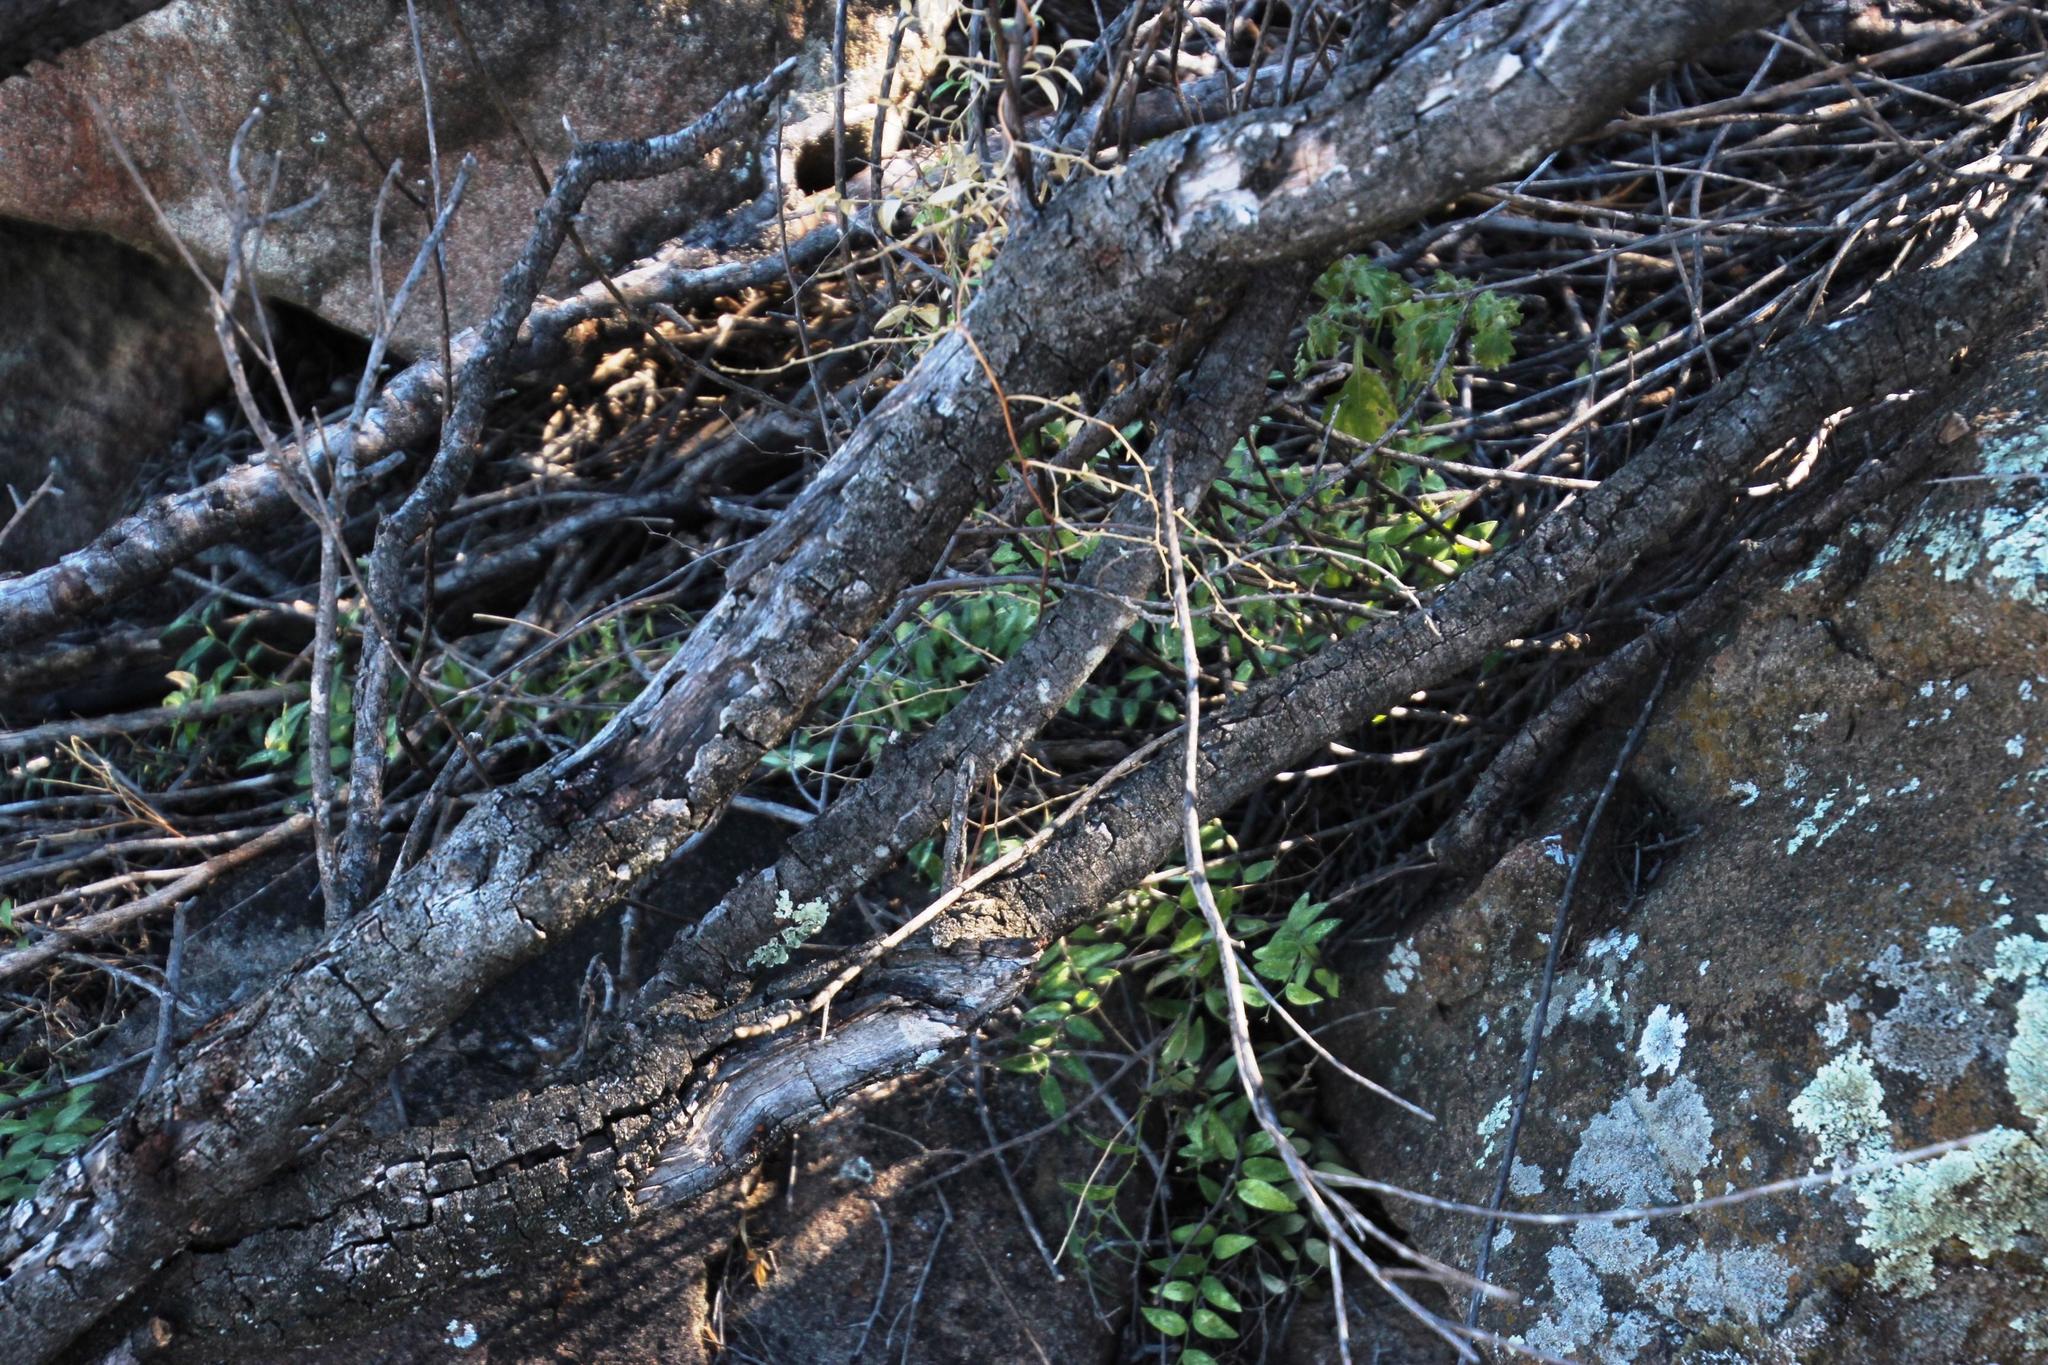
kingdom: Plantae
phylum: Tracheophyta
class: Liliopsida
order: Asparagales
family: Asparagaceae
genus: Asparagus
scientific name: Asparagus asparagoides
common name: African asparagus fern
